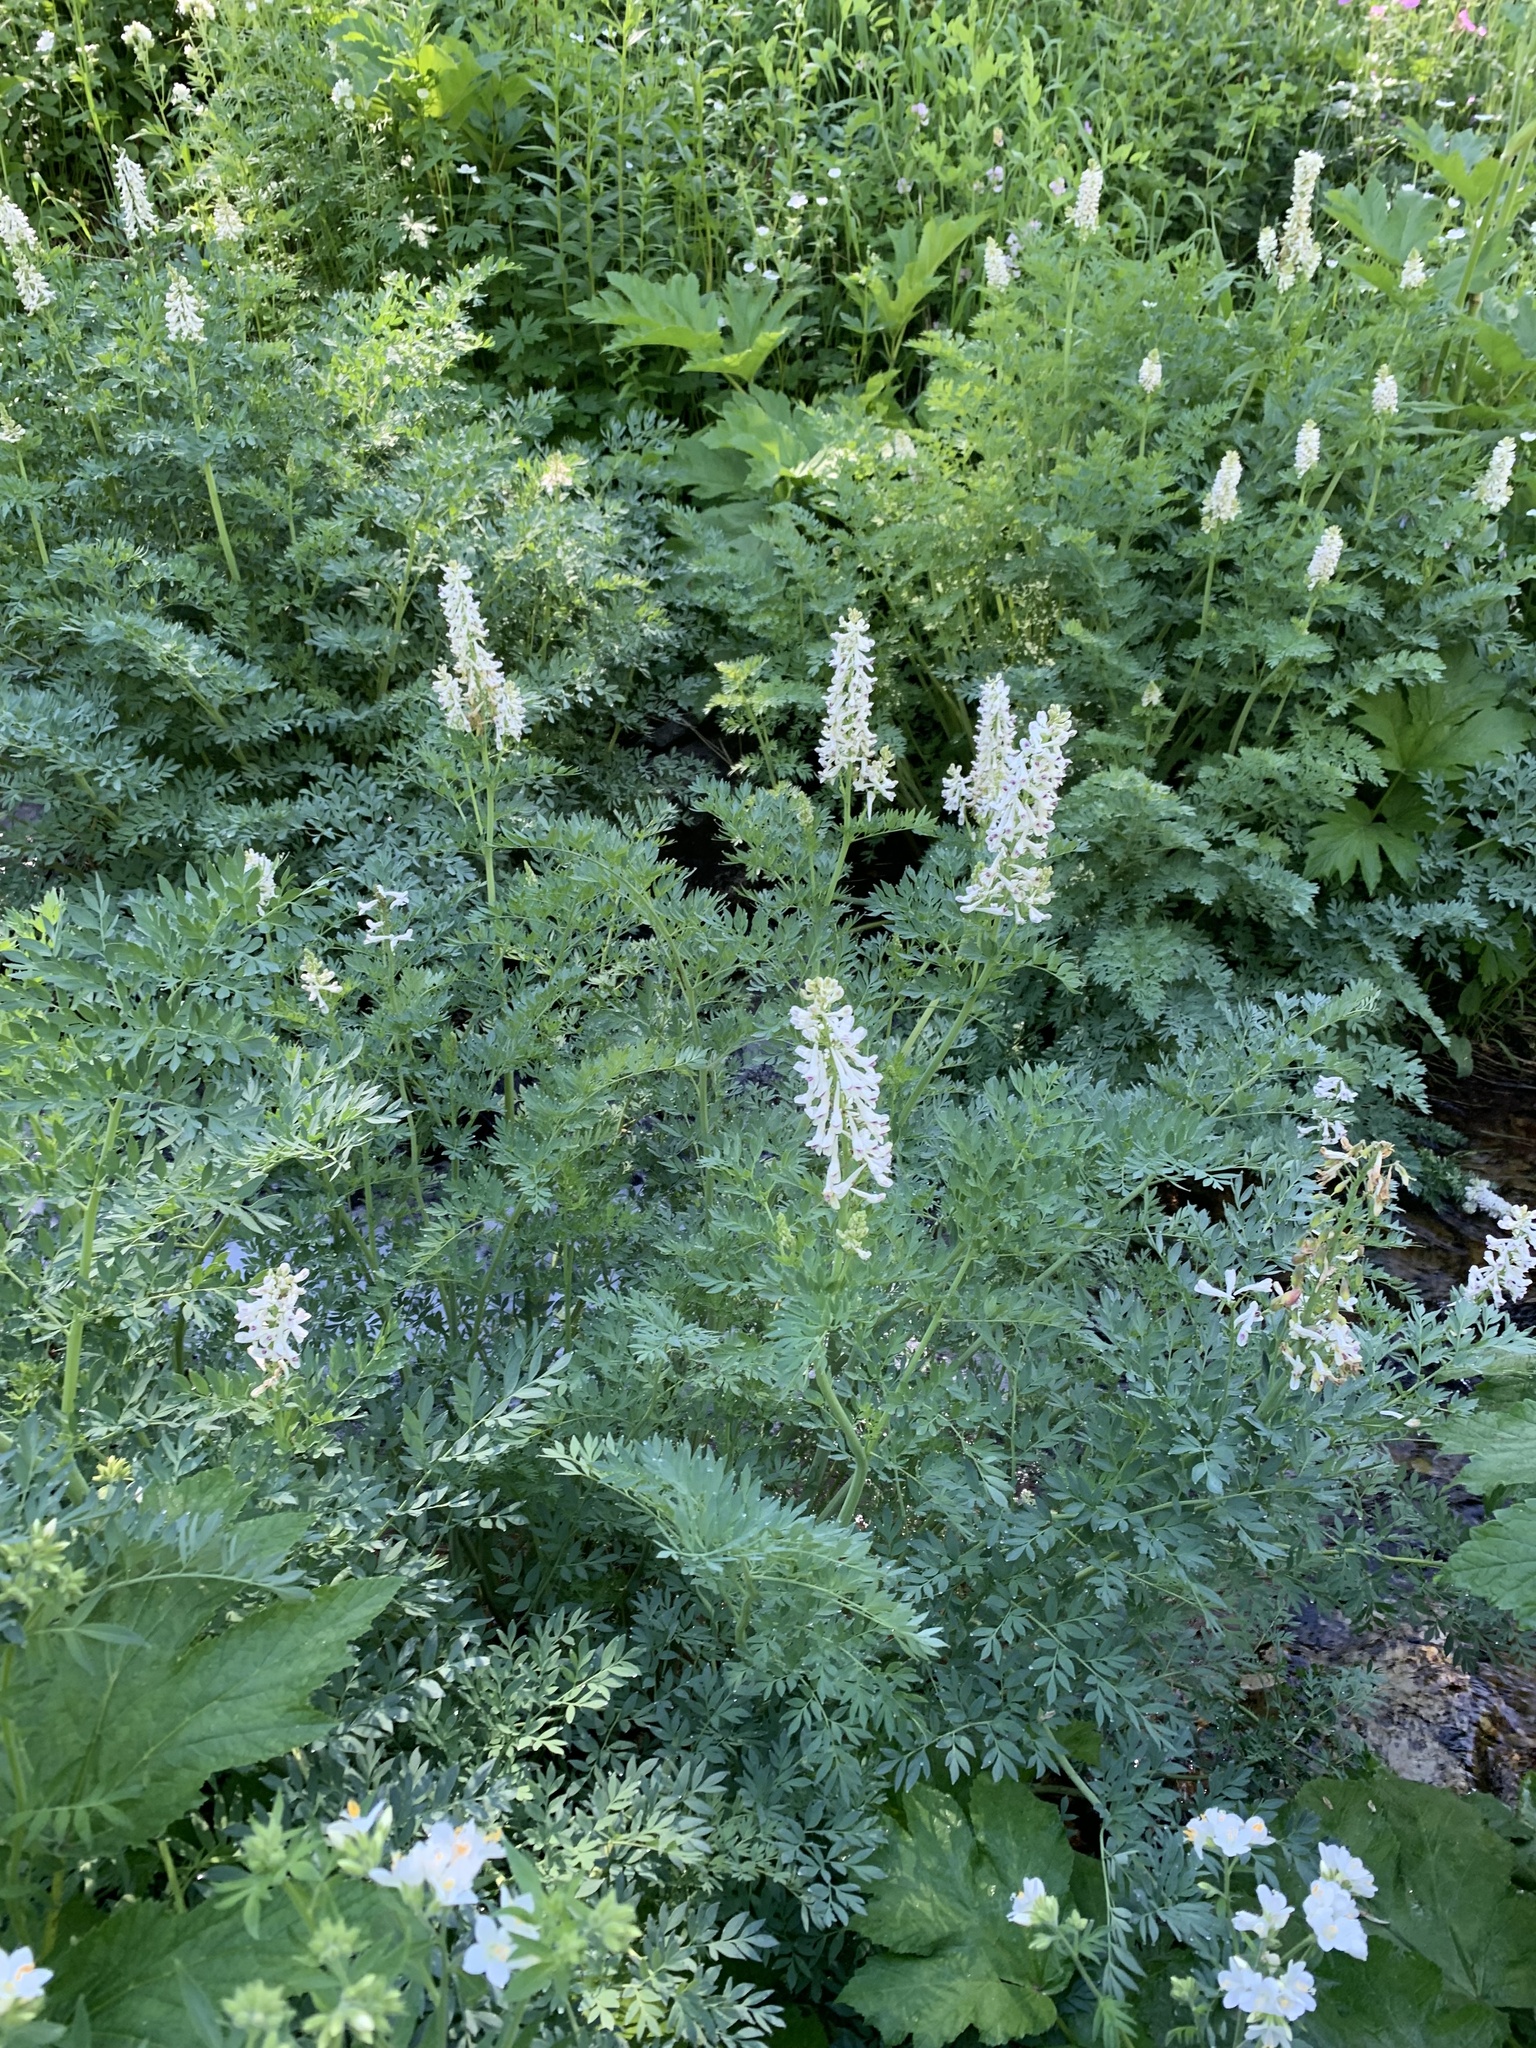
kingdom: Plantae
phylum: Tracheophyta
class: Magnoliopsida
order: Ranunculales
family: Papaveraceae
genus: Corydalis
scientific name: Corydalis caseana
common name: Fitweed
